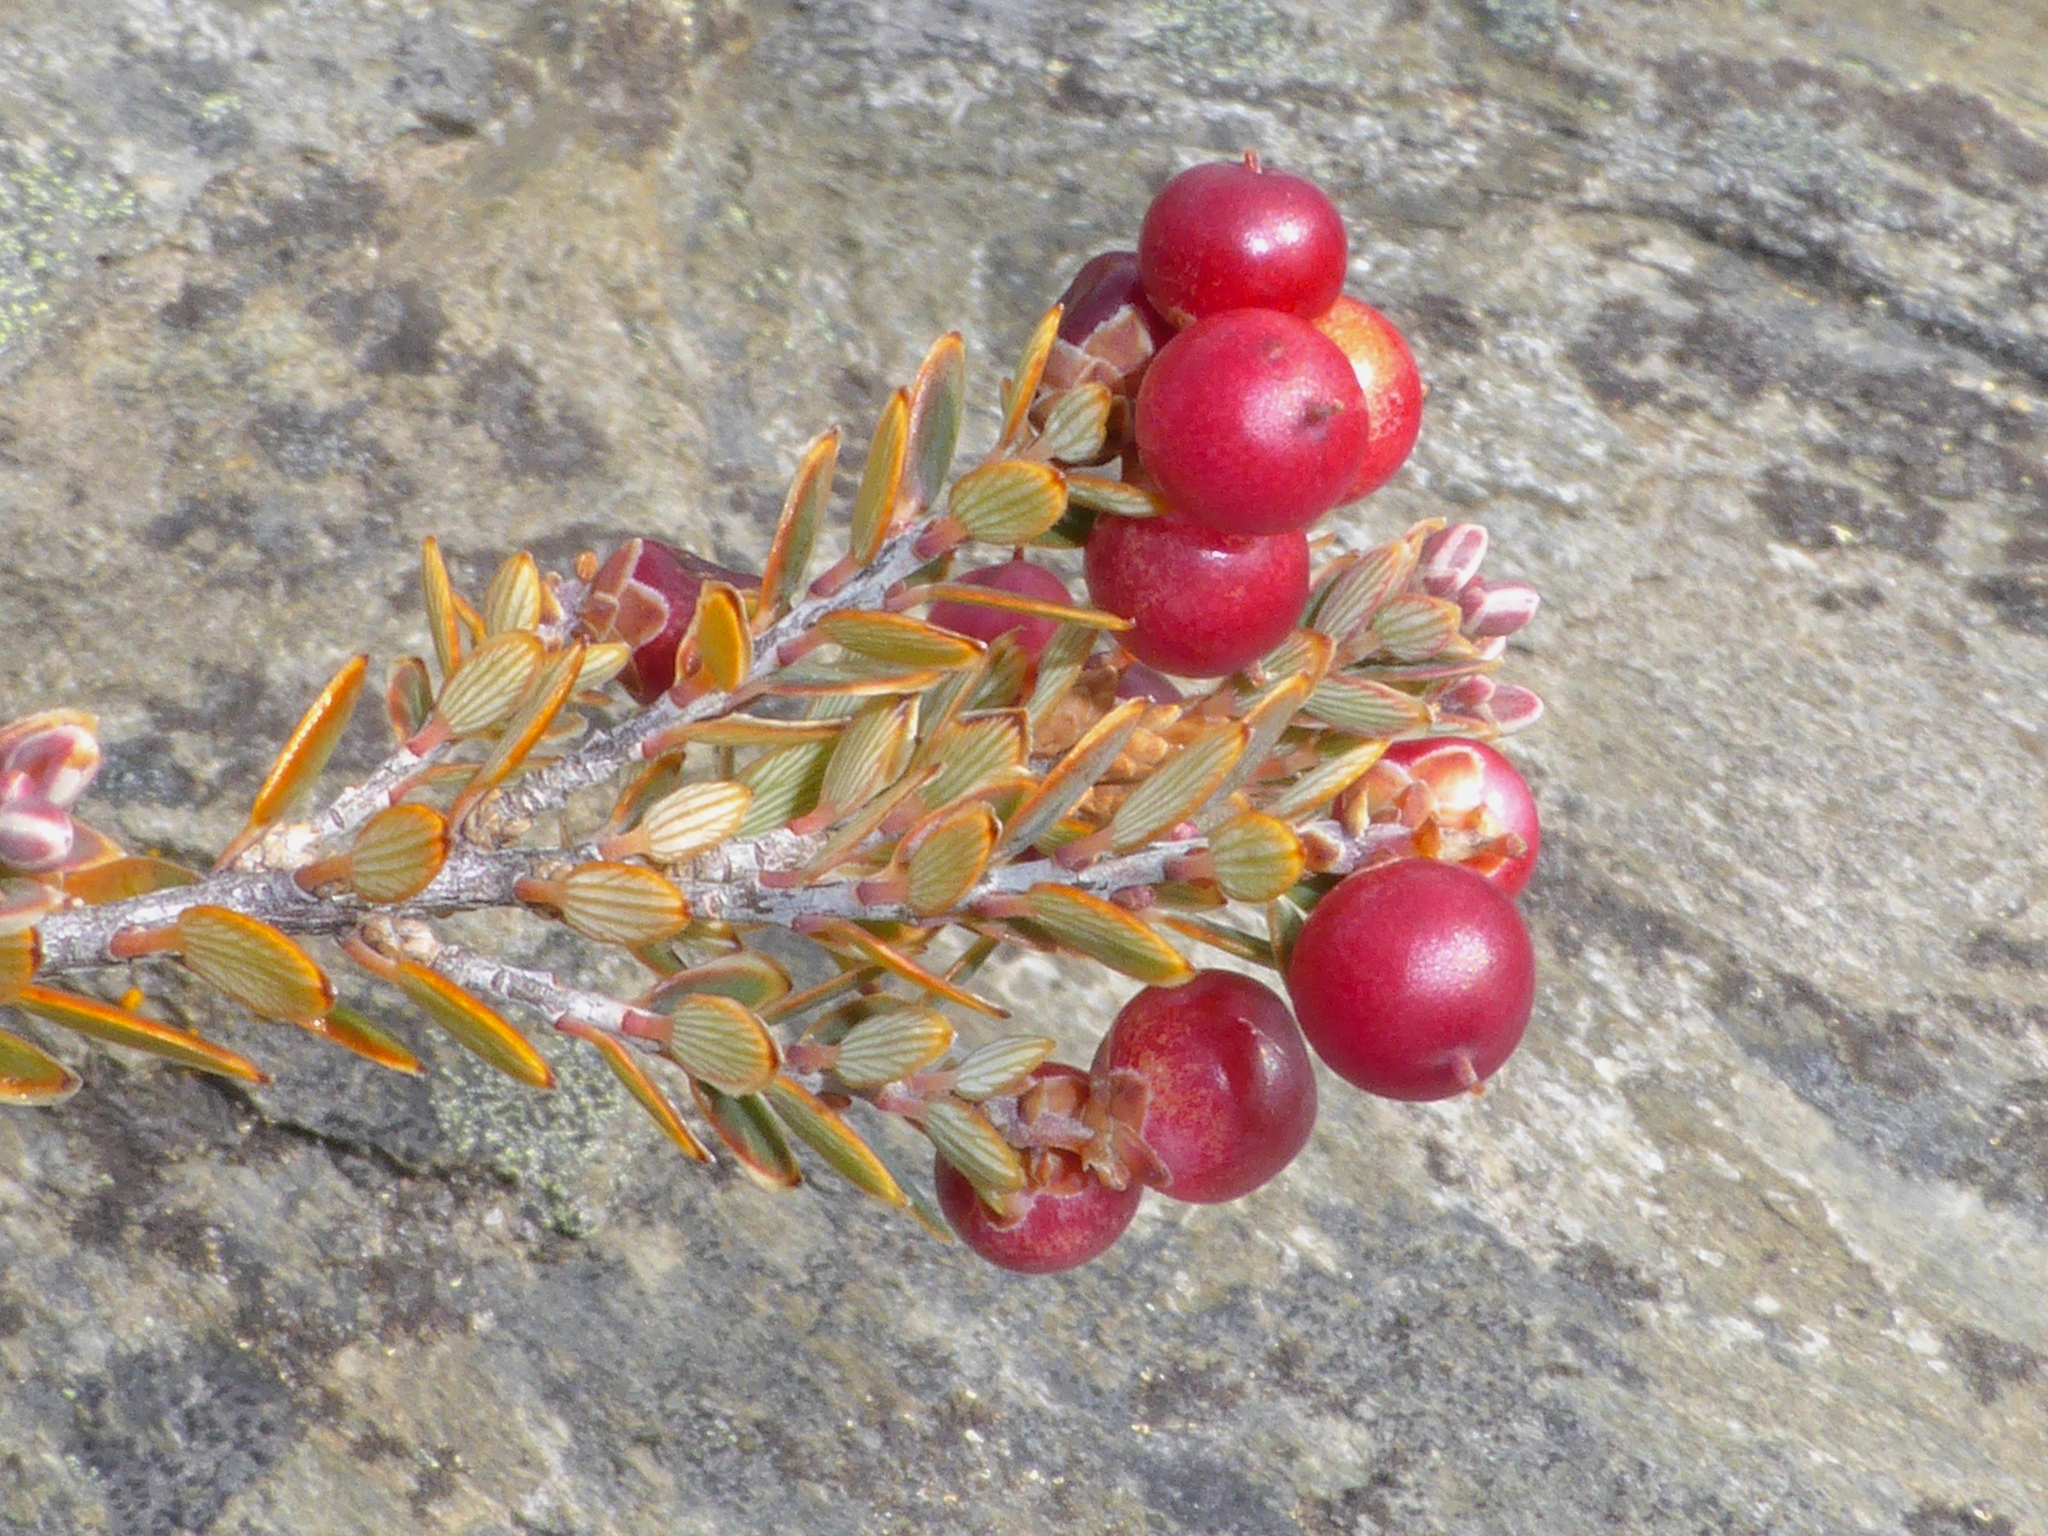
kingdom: Plantae
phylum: Tracheophyta
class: Magnoliopsida
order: Ericales
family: Ericaceae
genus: Acrothamnus
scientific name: Acrothamnus colensoi
